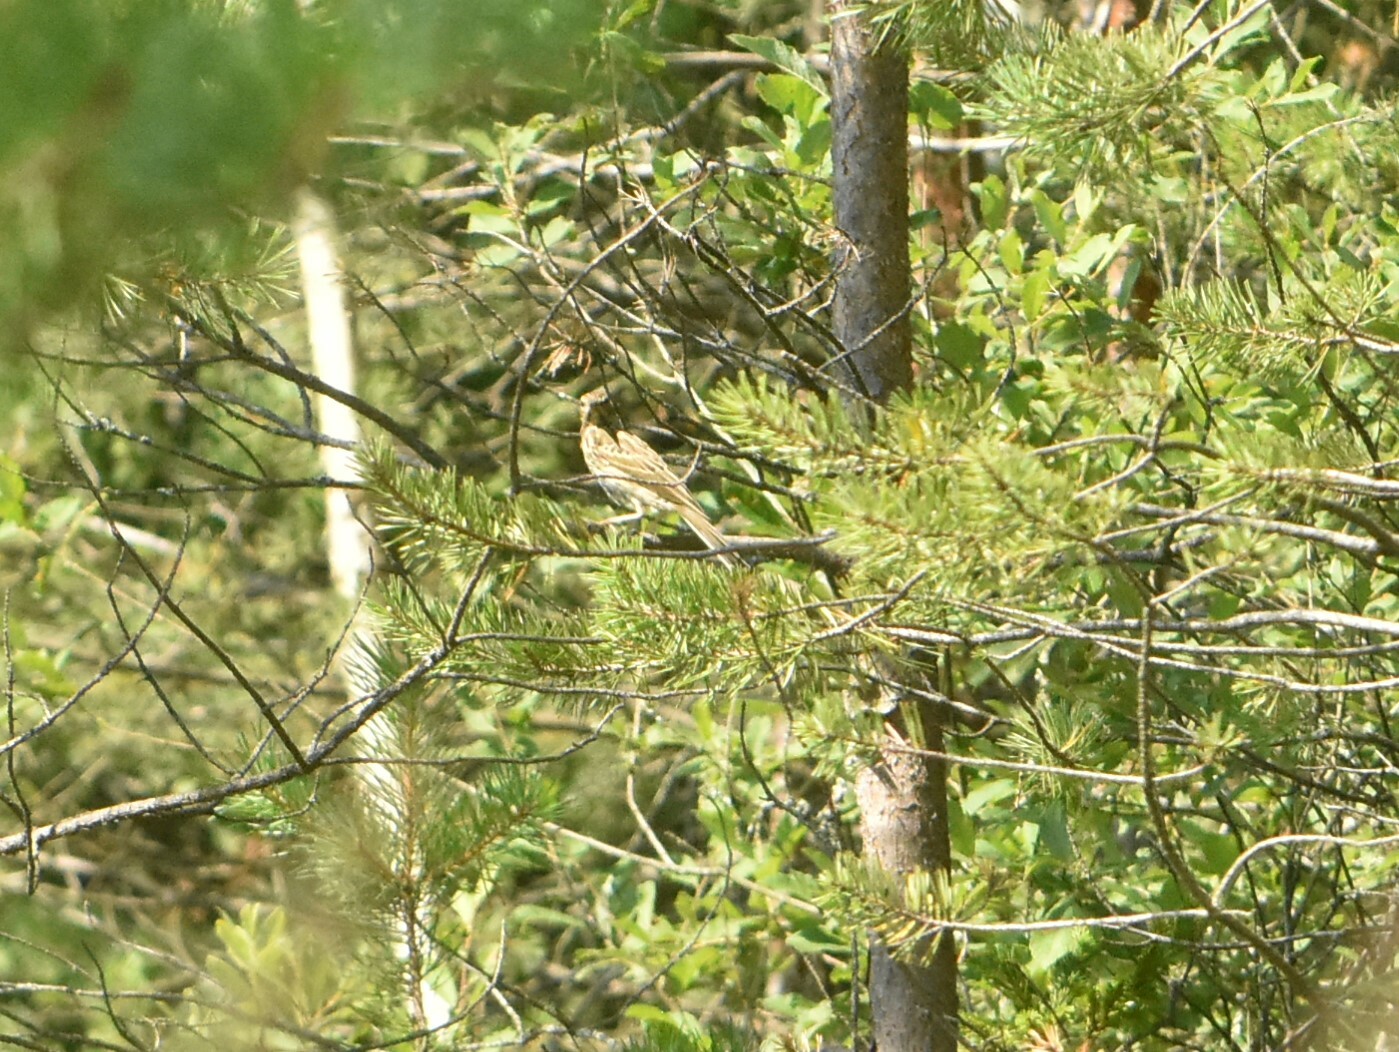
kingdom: Animalia
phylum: Chordata
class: Aves
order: Passeriformes
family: Motacillidae
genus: Anthus
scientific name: Anthus trivialis
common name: Tree pipit
